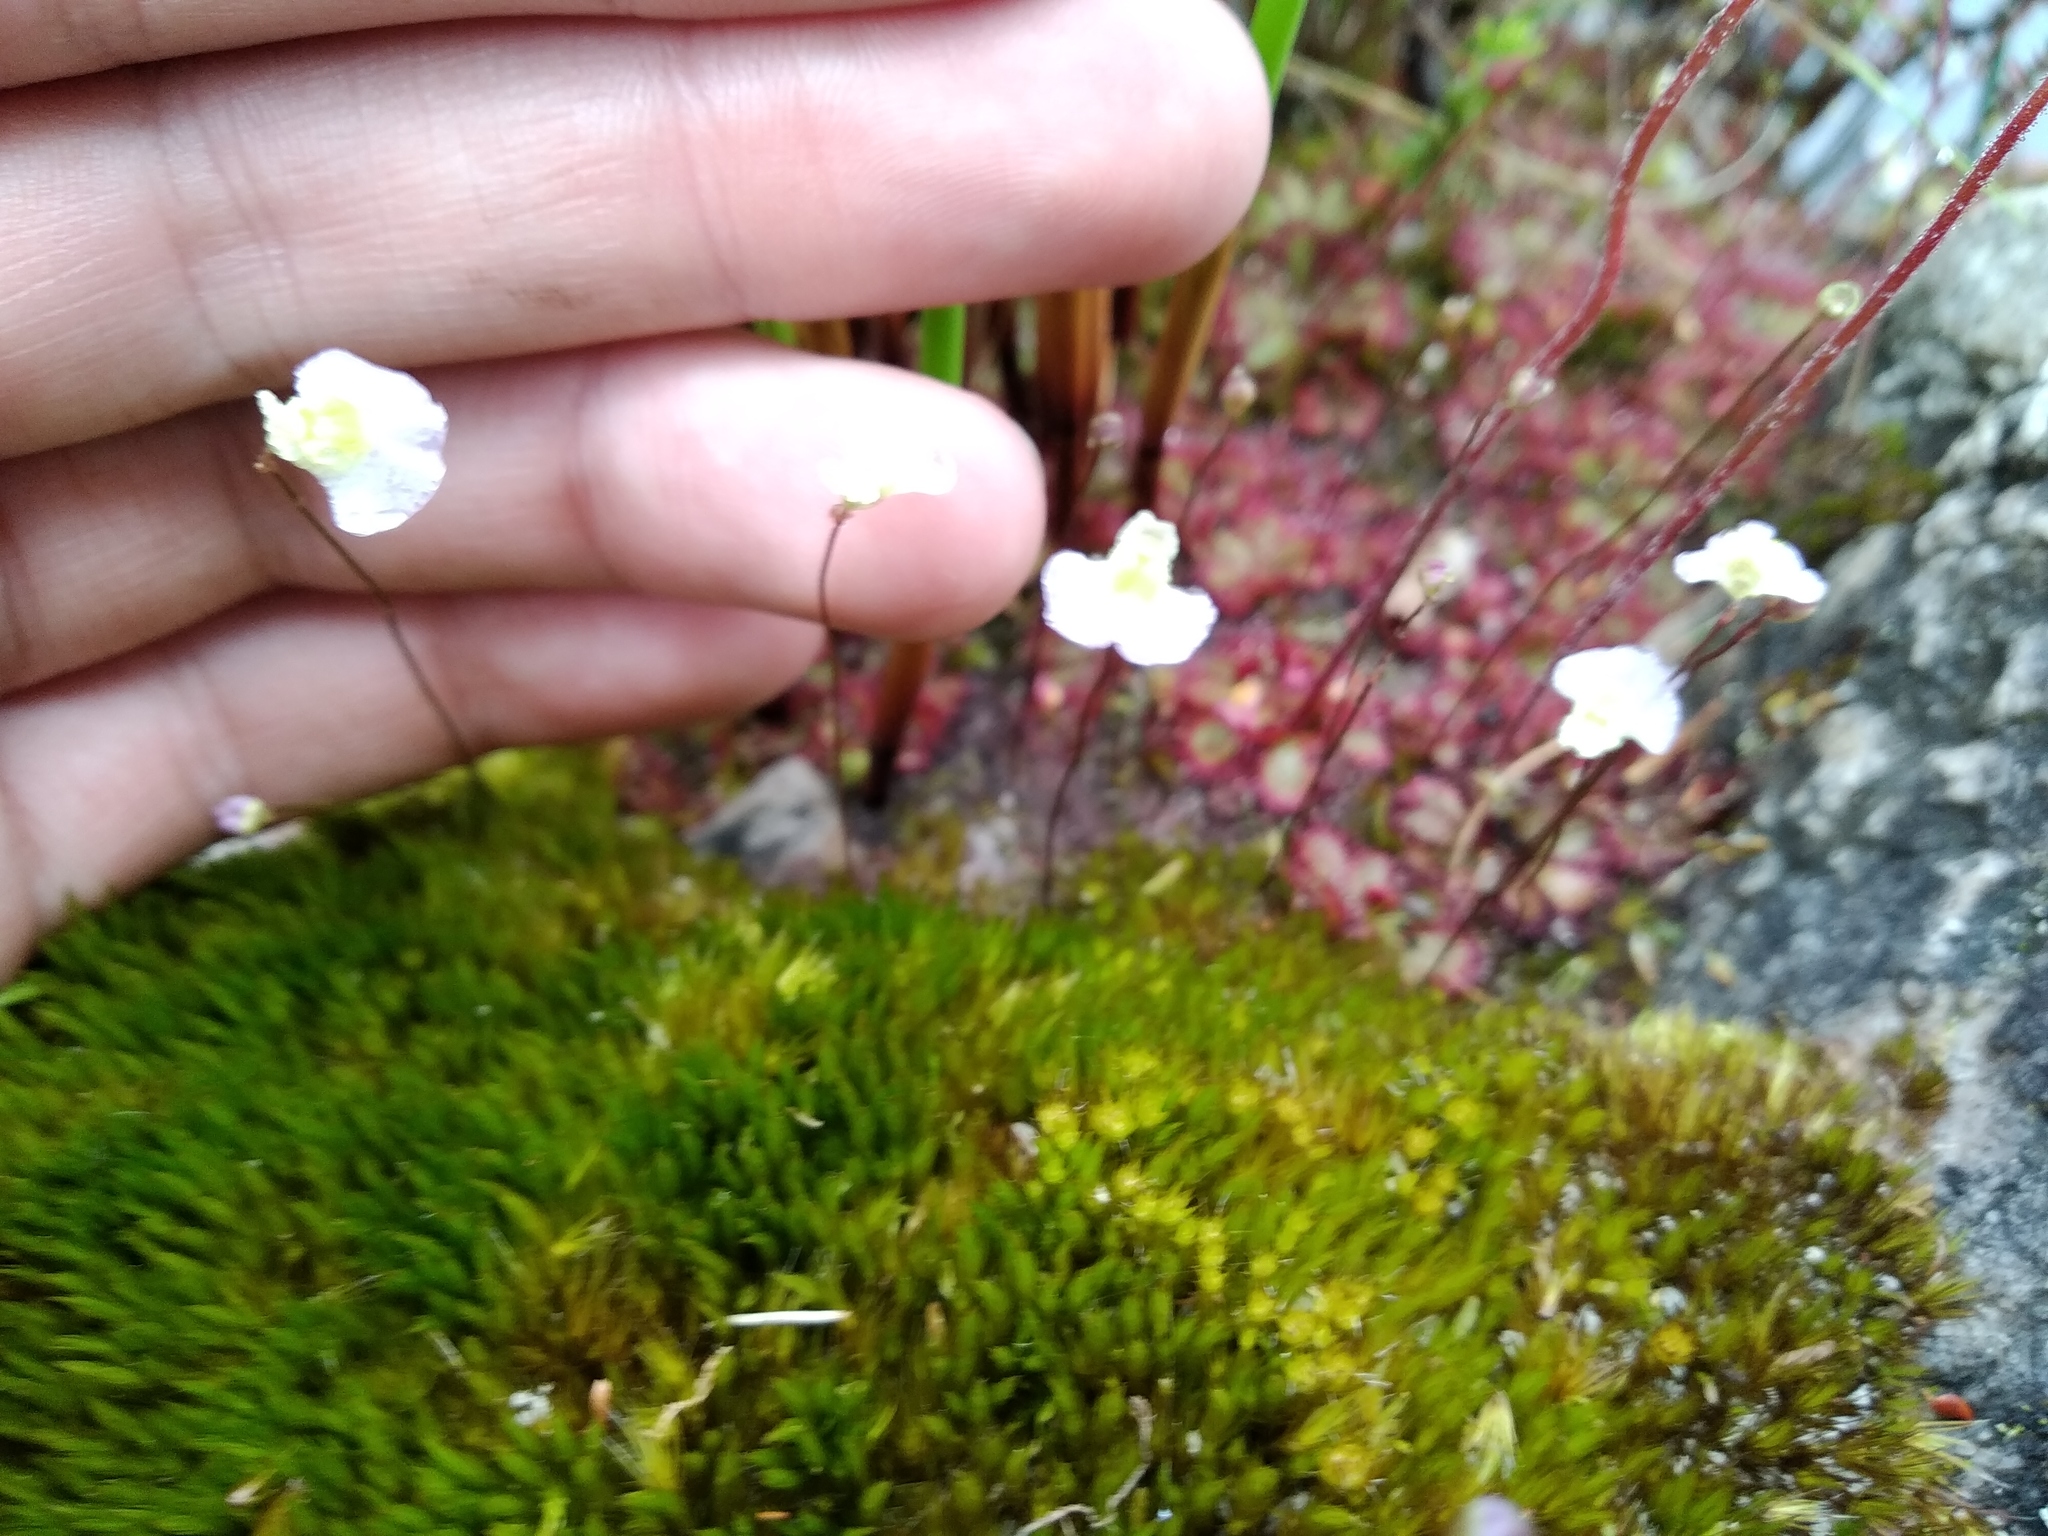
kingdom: Plantae
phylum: Tracheophyta
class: Magnoliopsida
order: Lamiales
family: Lentibulariaceae
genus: Utricularia
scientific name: Utricularia bisquamata
